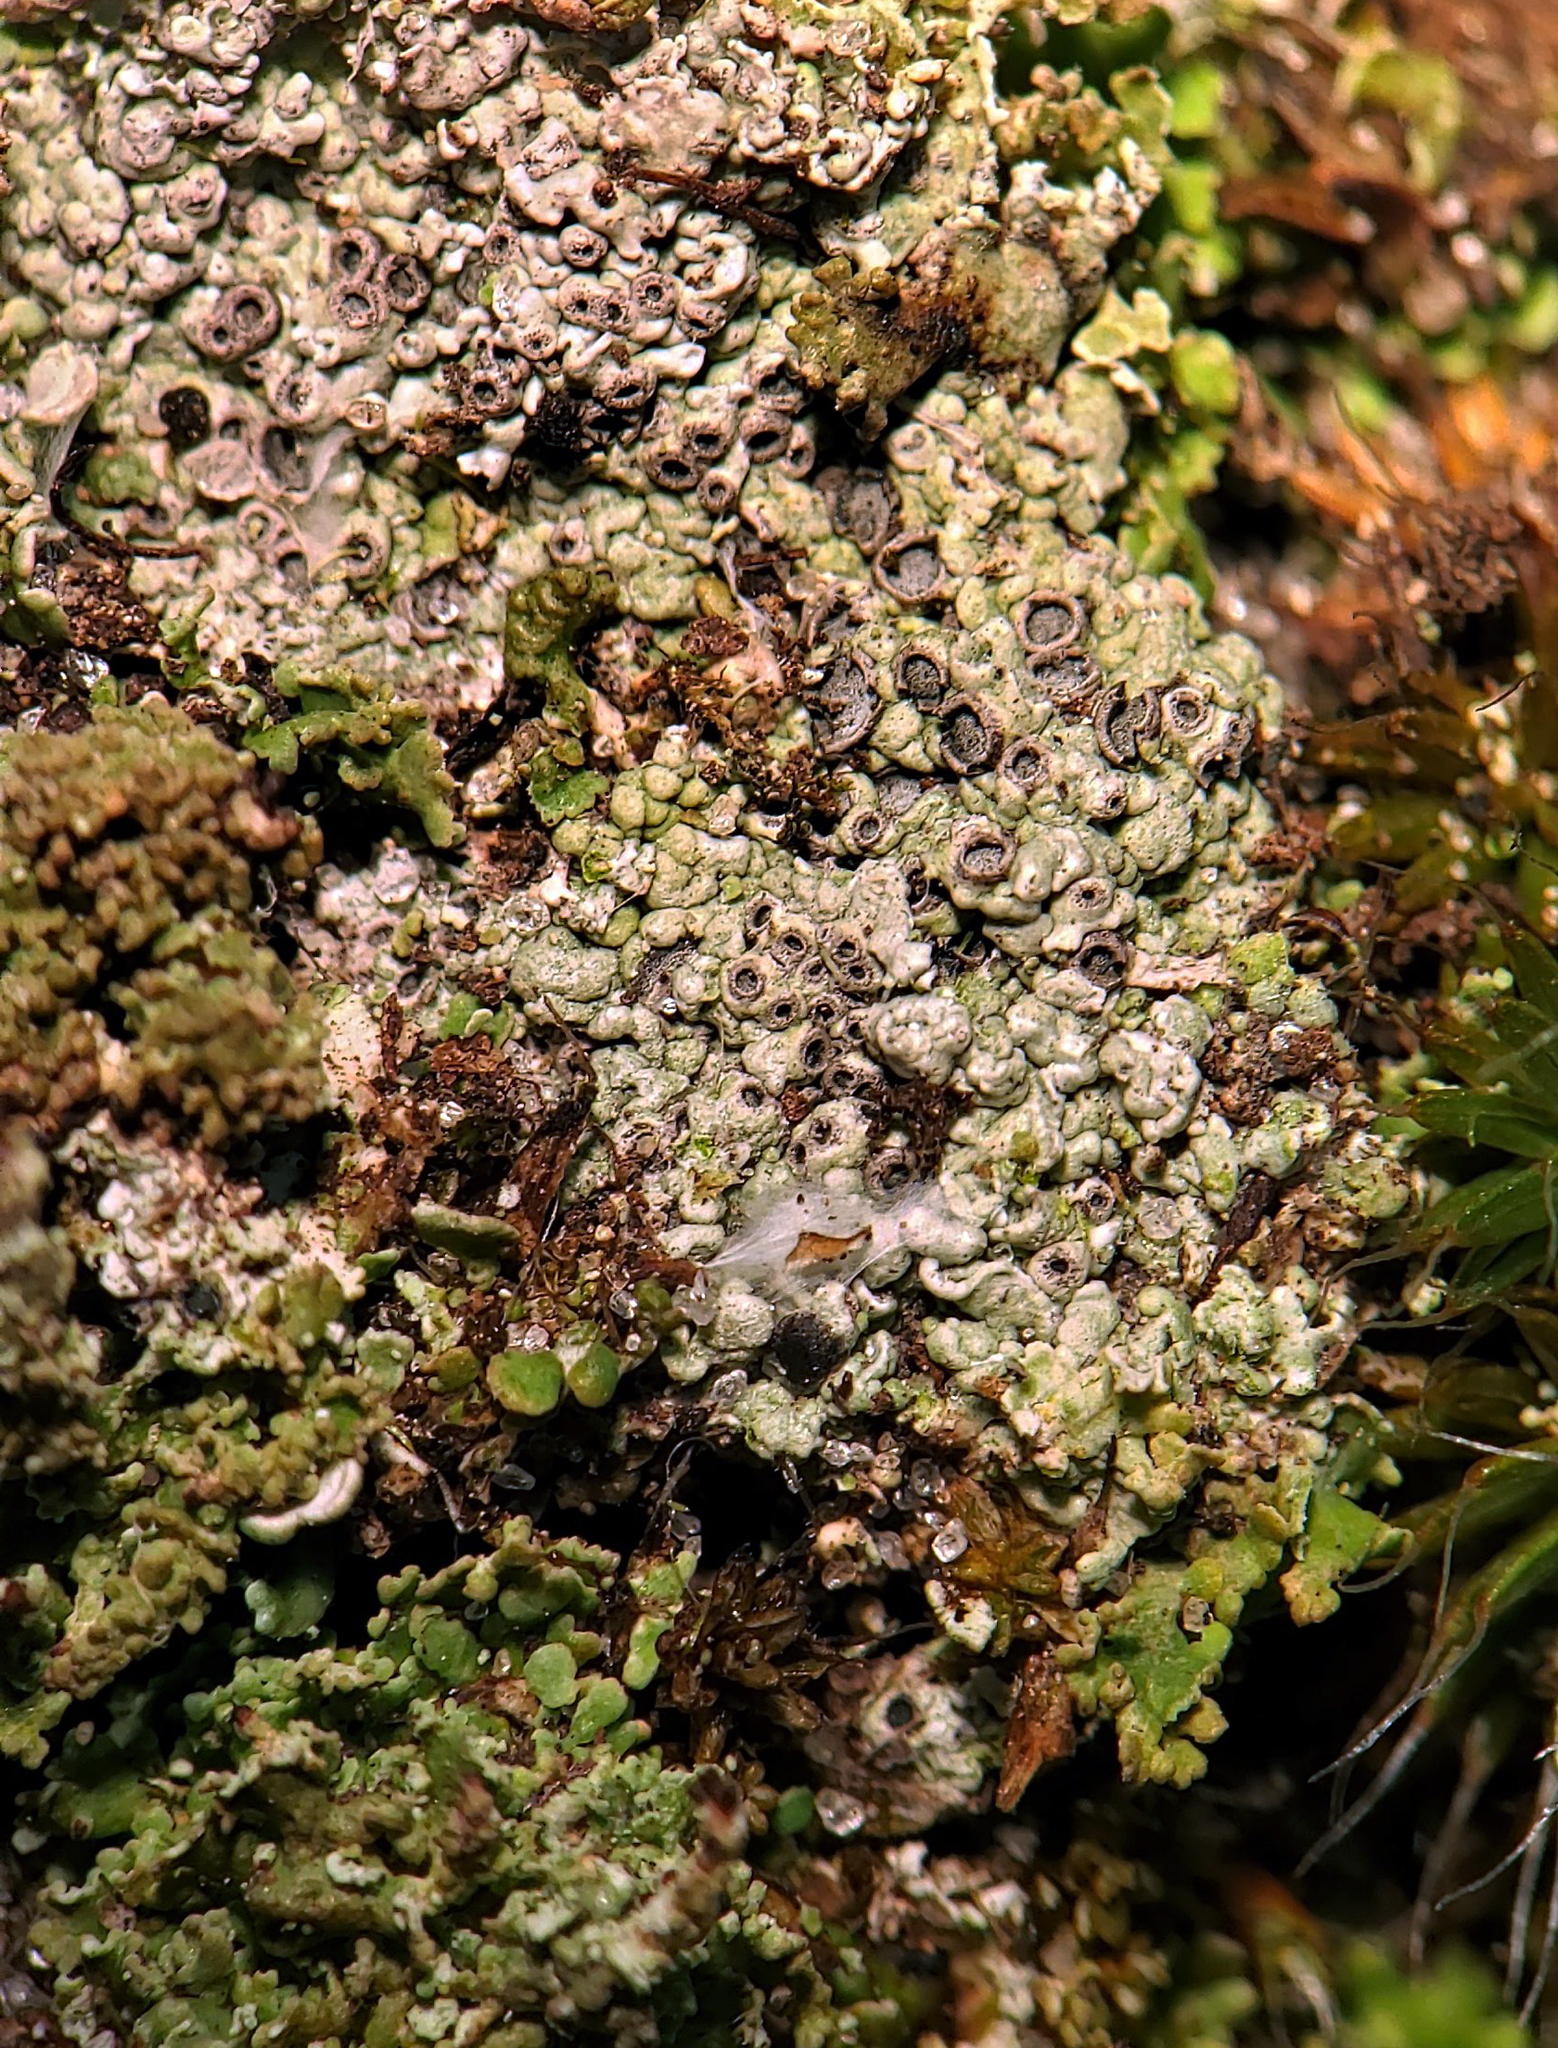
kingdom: Fungi
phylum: Ascomycota
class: Lecanoromycetes
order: Ostropales
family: Graphidaceae
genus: Diploschistes
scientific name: Diploschistes muscorum
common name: Cowpie lichen
